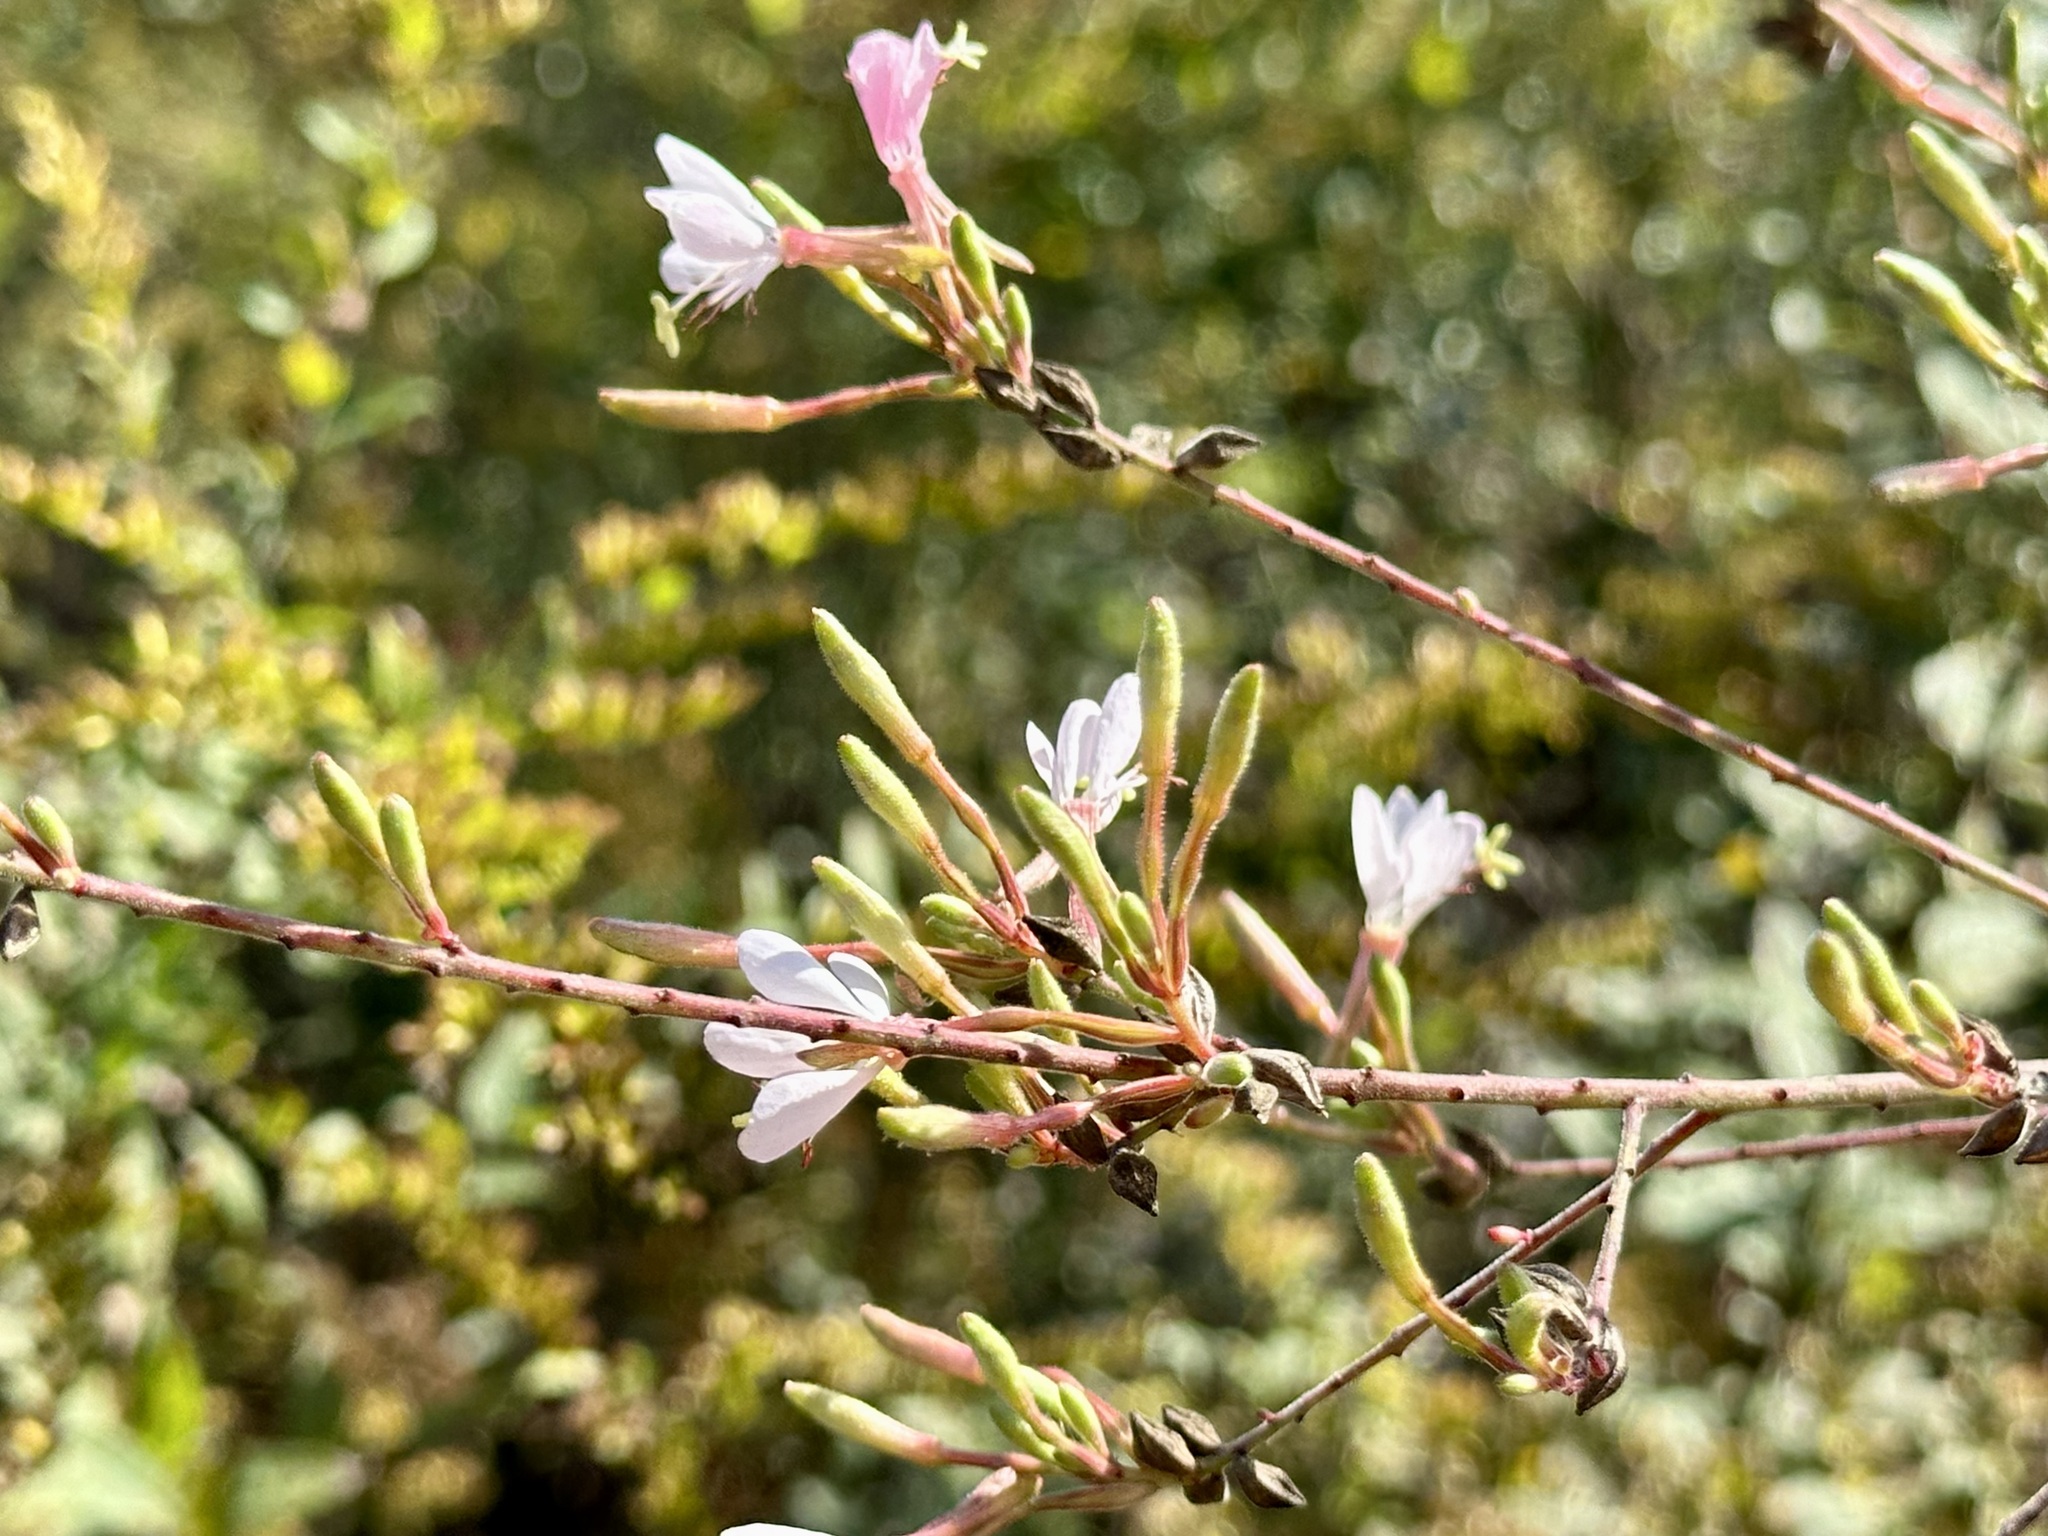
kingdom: Plantae
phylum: Tracheophyta
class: Magnoliopsida
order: Myrtales
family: Onagraceae
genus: Oenothera
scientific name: Oenothera gaura
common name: Biennial beeblossom
